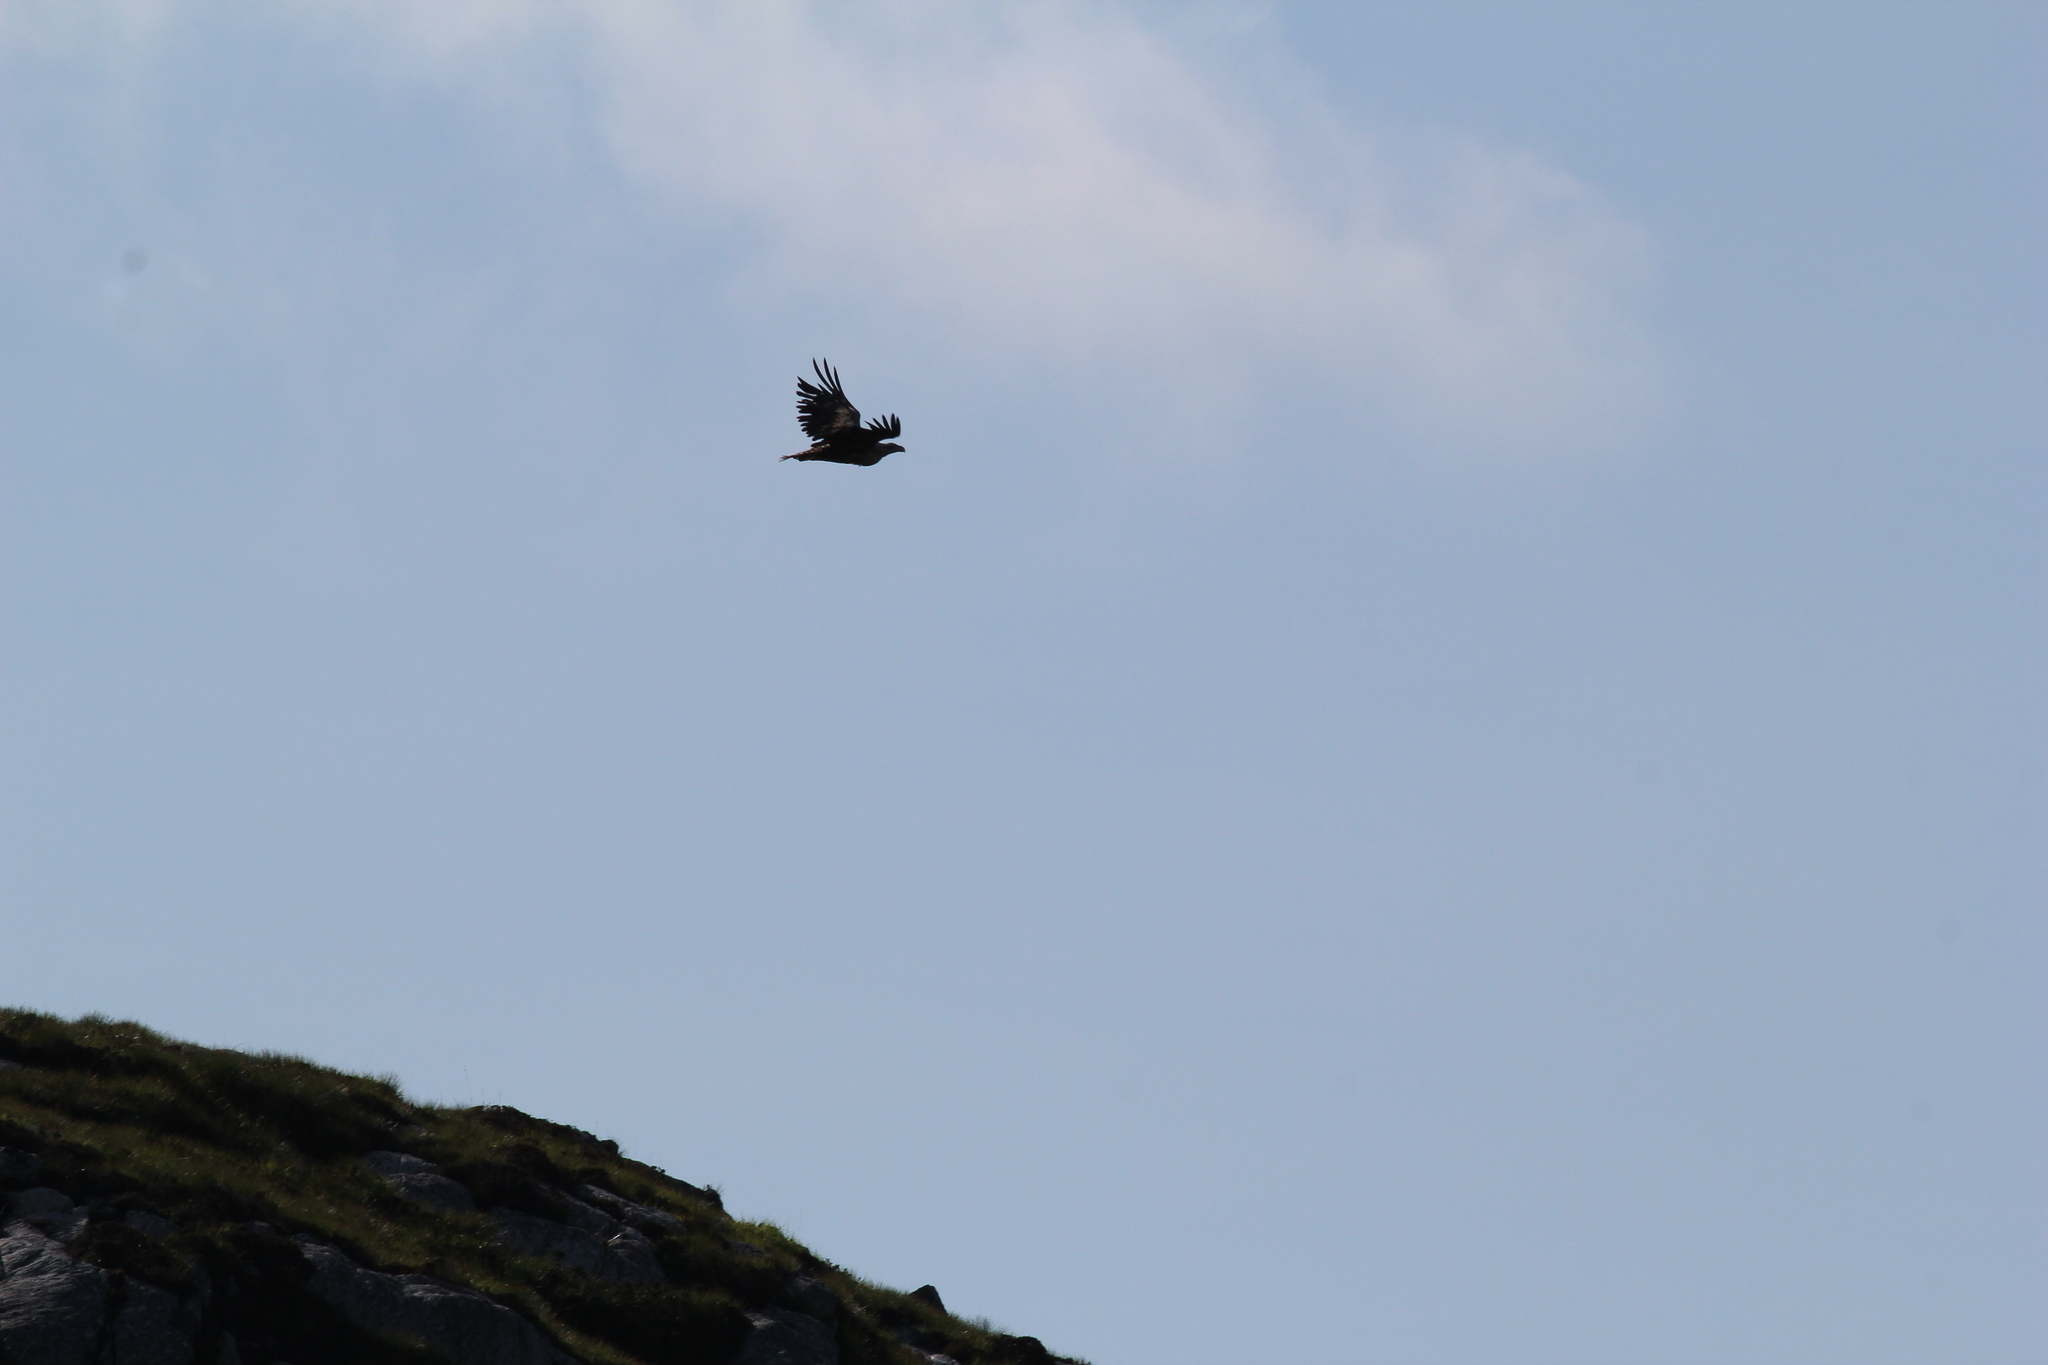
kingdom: Animalia
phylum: Chordata
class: Aves
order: Accipitriformes
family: Accipitridae
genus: Haliaeetus
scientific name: Haliaeetus albicilla
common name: White-tailed eagle
